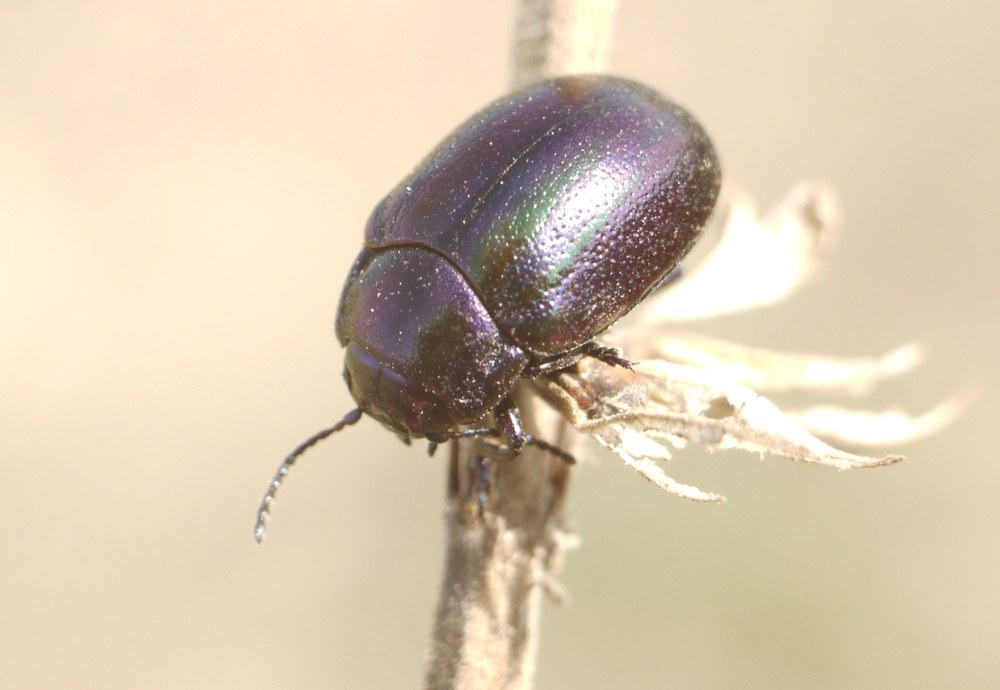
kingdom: Animalia
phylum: Arthropoda
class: Insecta
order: Coleoptera
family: Chrysomelidae
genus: Chrysolina
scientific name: Chrysolina cerealis
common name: Rainbow leaf beetle
